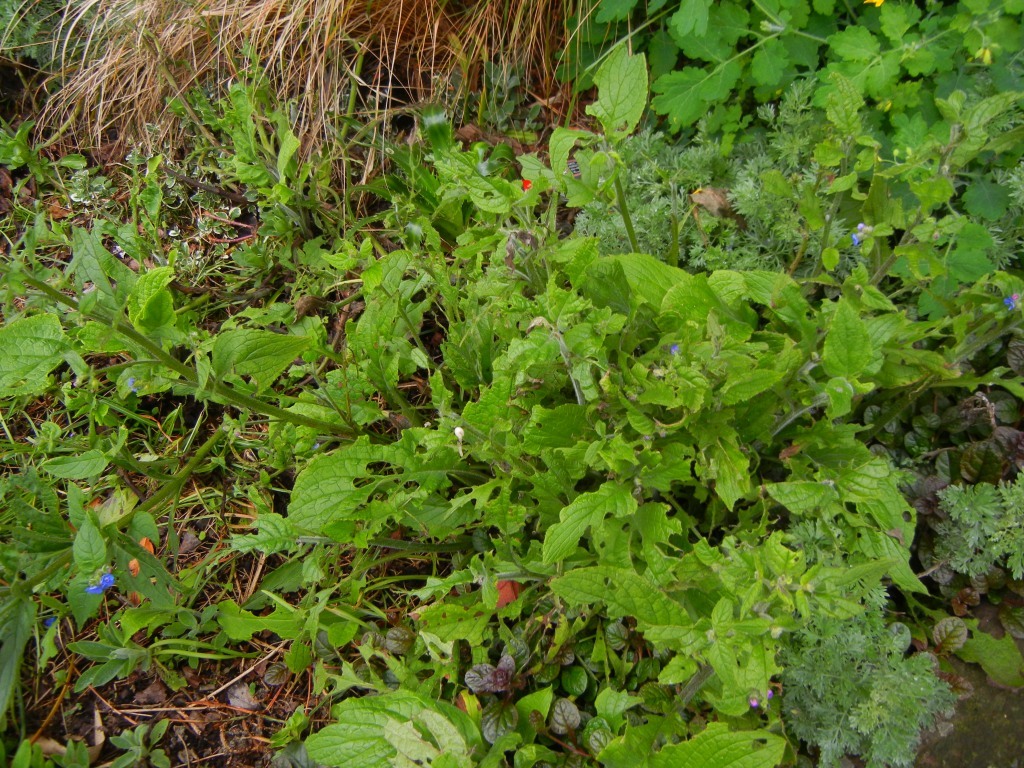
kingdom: Plantae
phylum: Tracheophyta
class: Magnoliopsida
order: Boraginales
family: Boraginaceae
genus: Pentaglottis
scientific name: Pentaglottis sempervirens
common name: Green alkanet
